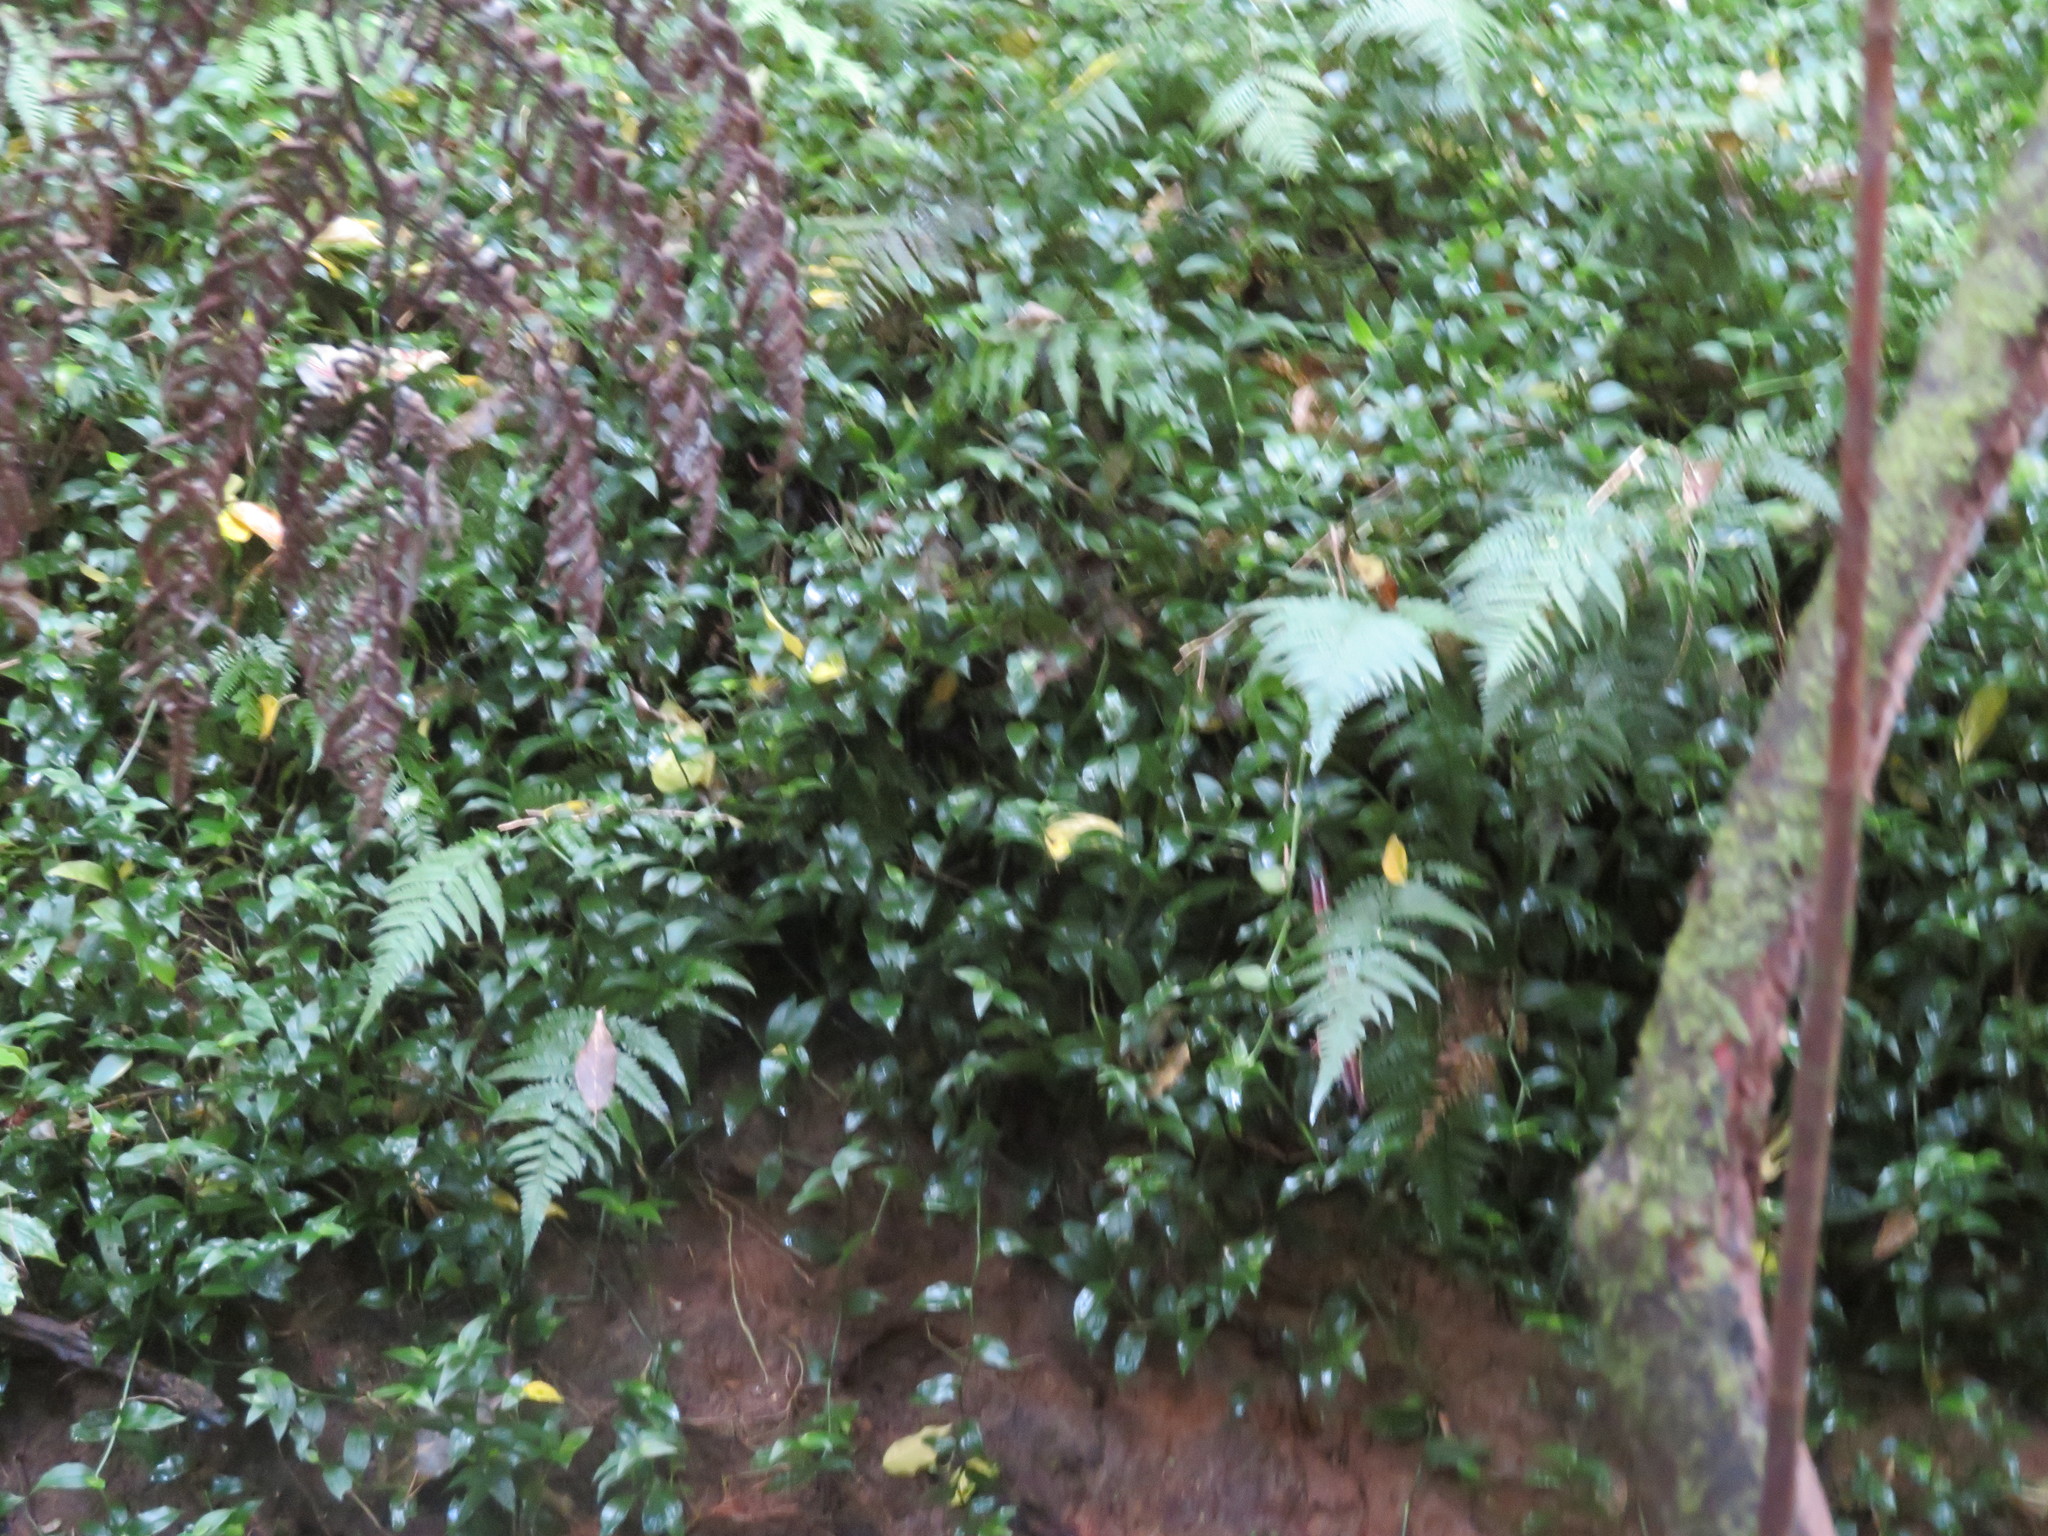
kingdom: Plantae
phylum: Tracheophyta
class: Liliopsida
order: Commelinales
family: Commelinaceae
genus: Tradescantia
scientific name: Tradescantia fluminensis
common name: Wandering-jew
